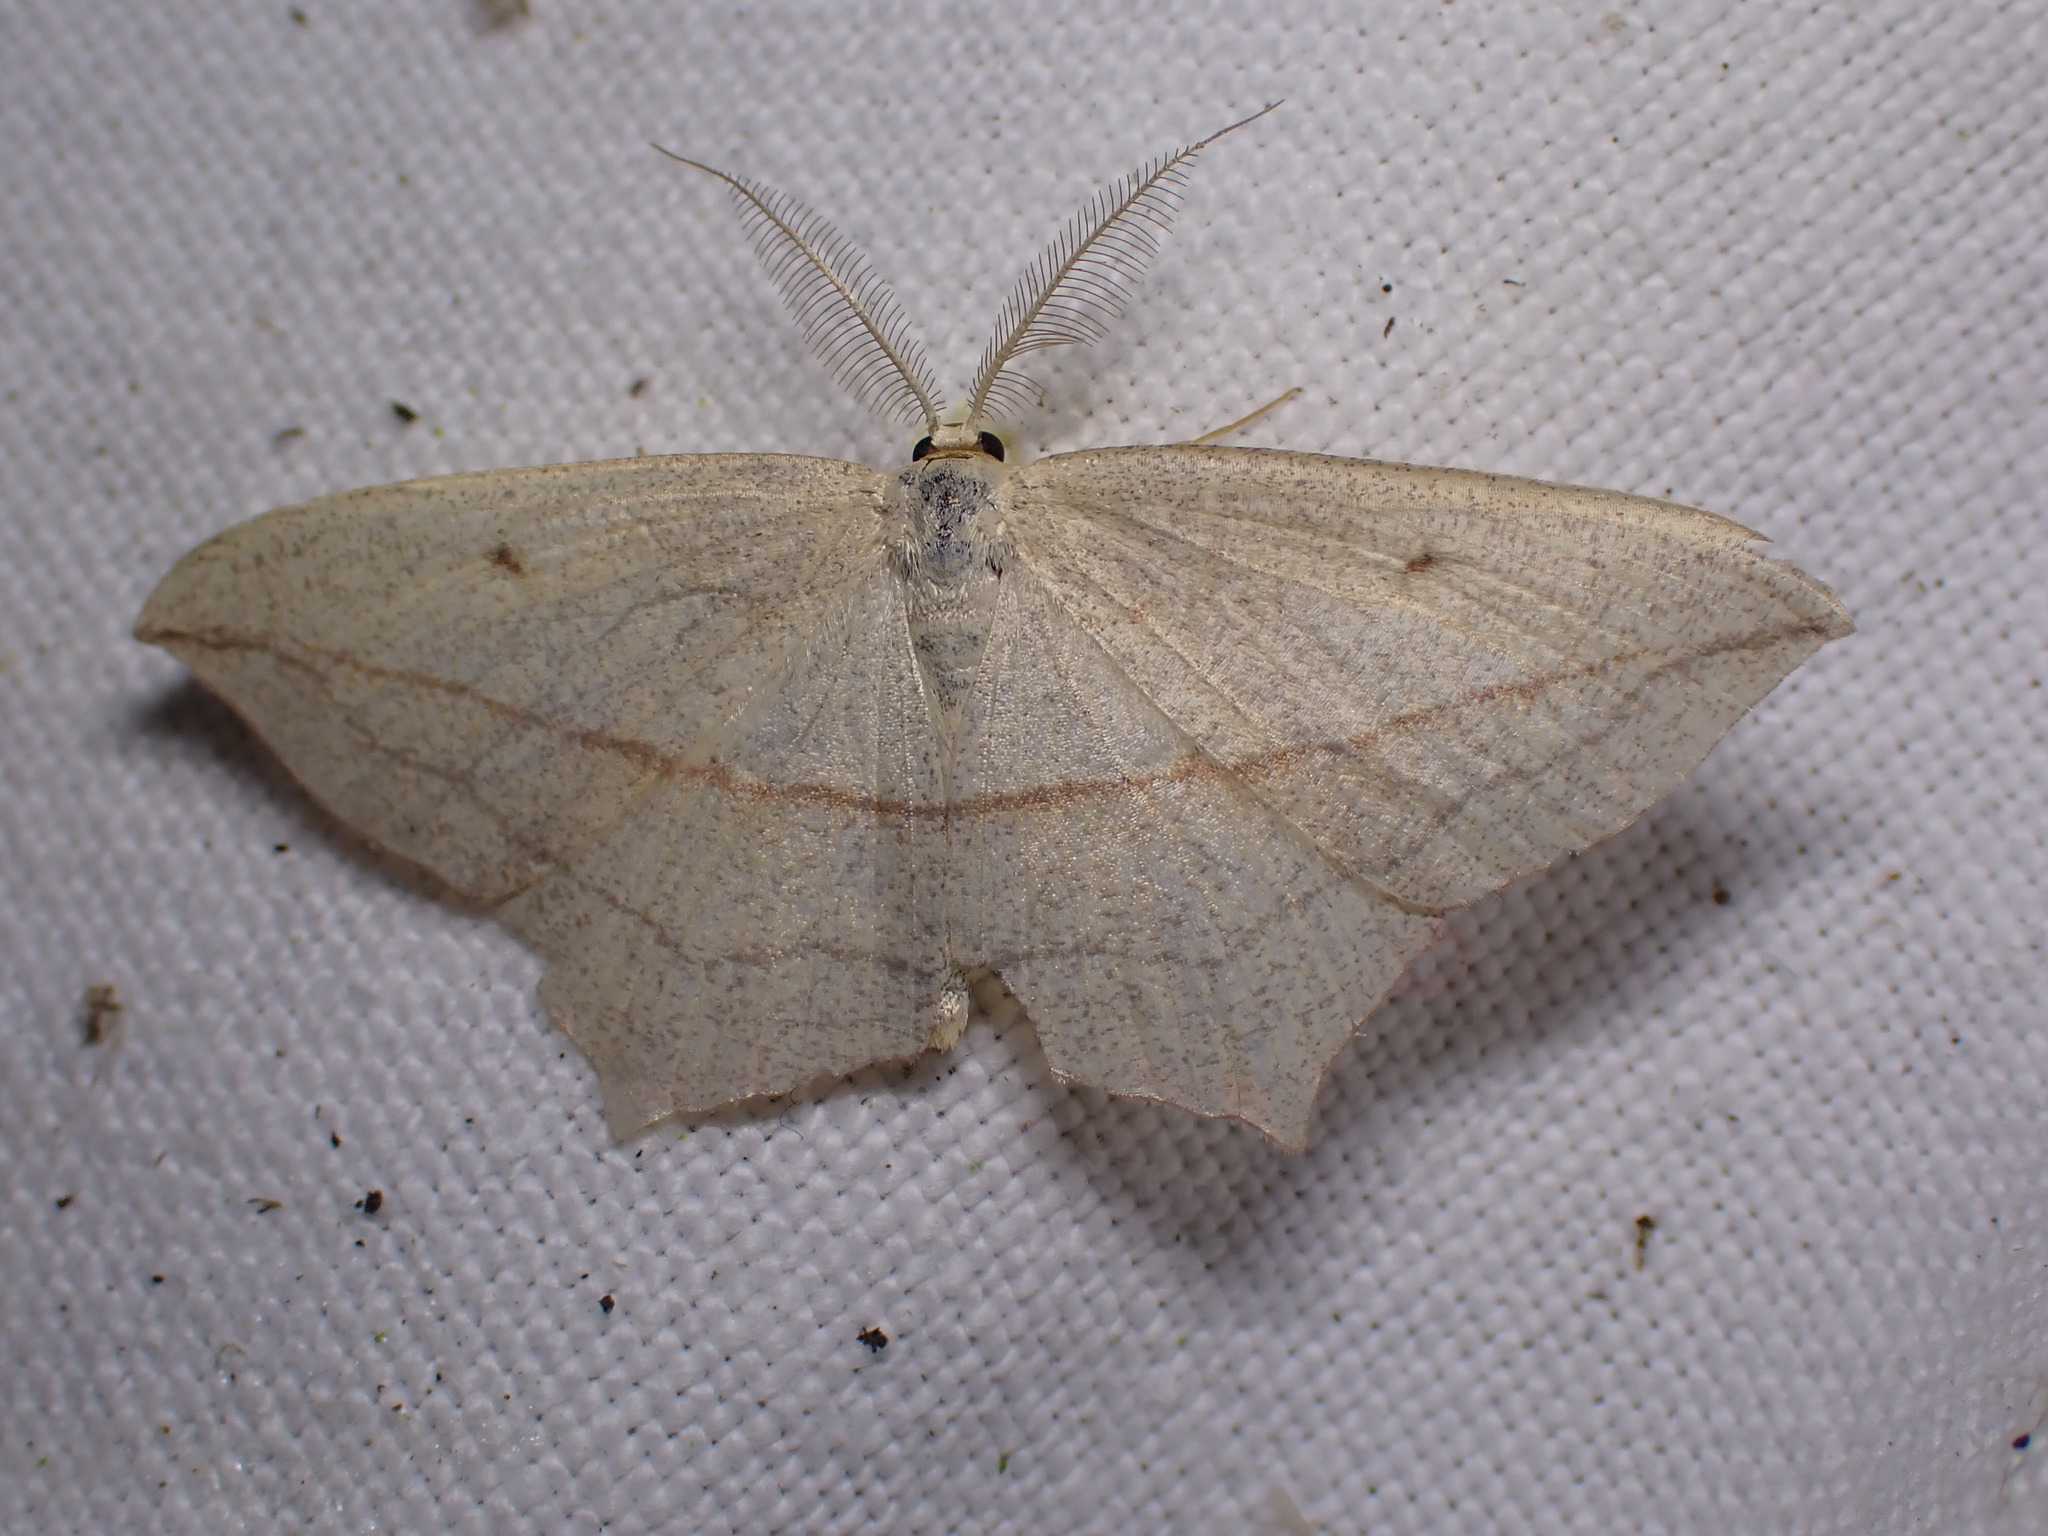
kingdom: Animalia
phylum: Arthropoda
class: Insecta
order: Lepidoptera
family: Geometridae
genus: Timandra
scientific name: Timandra comae
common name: Blood-vein
